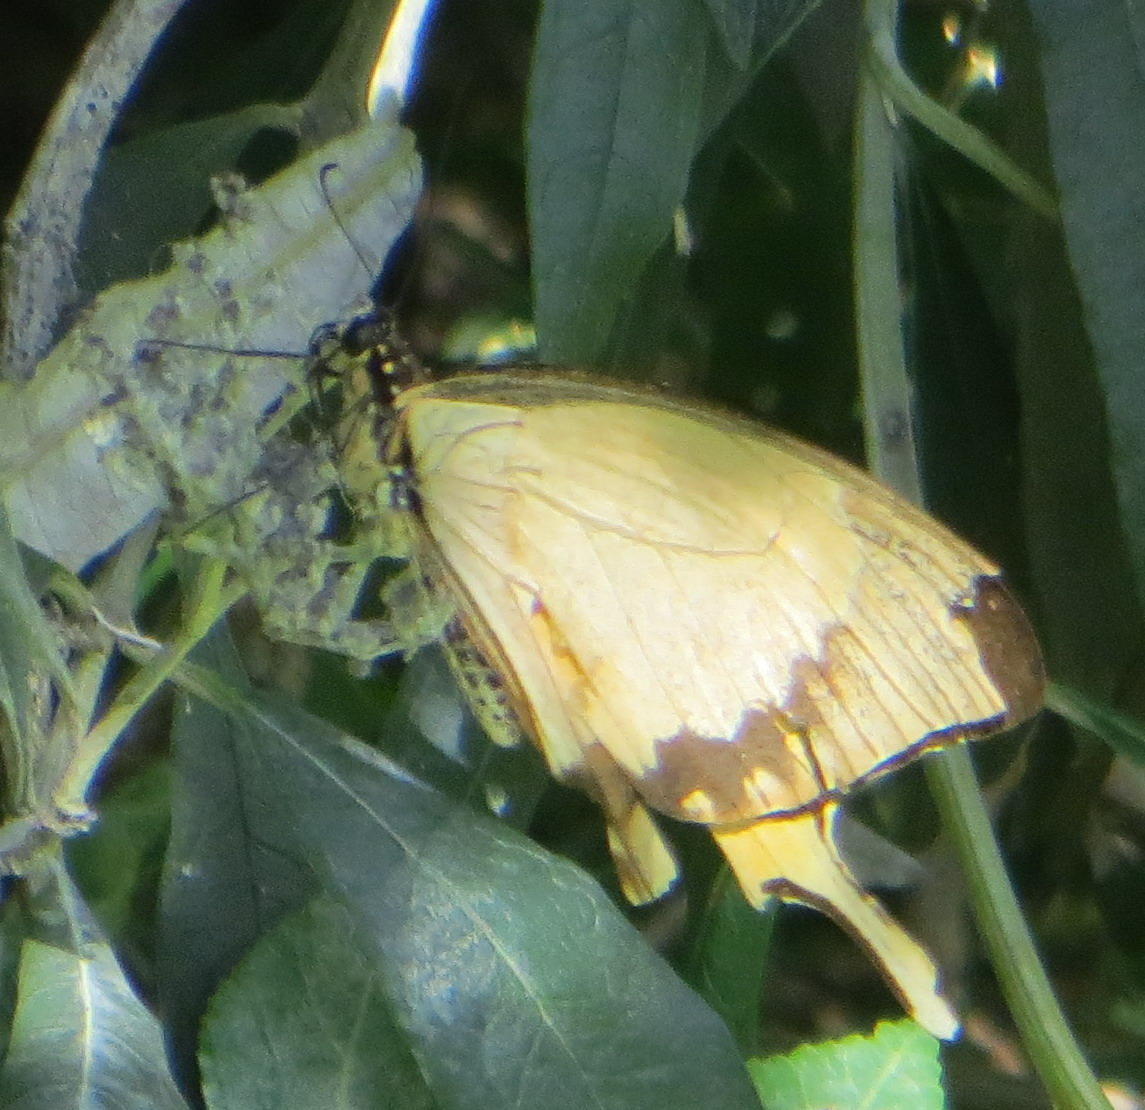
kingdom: Animalia
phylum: Arthropoda
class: Insecta
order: Lepidoptera
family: Papilionidae
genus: Papilio
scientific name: Papilio dardanus
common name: Flying handkerchief
